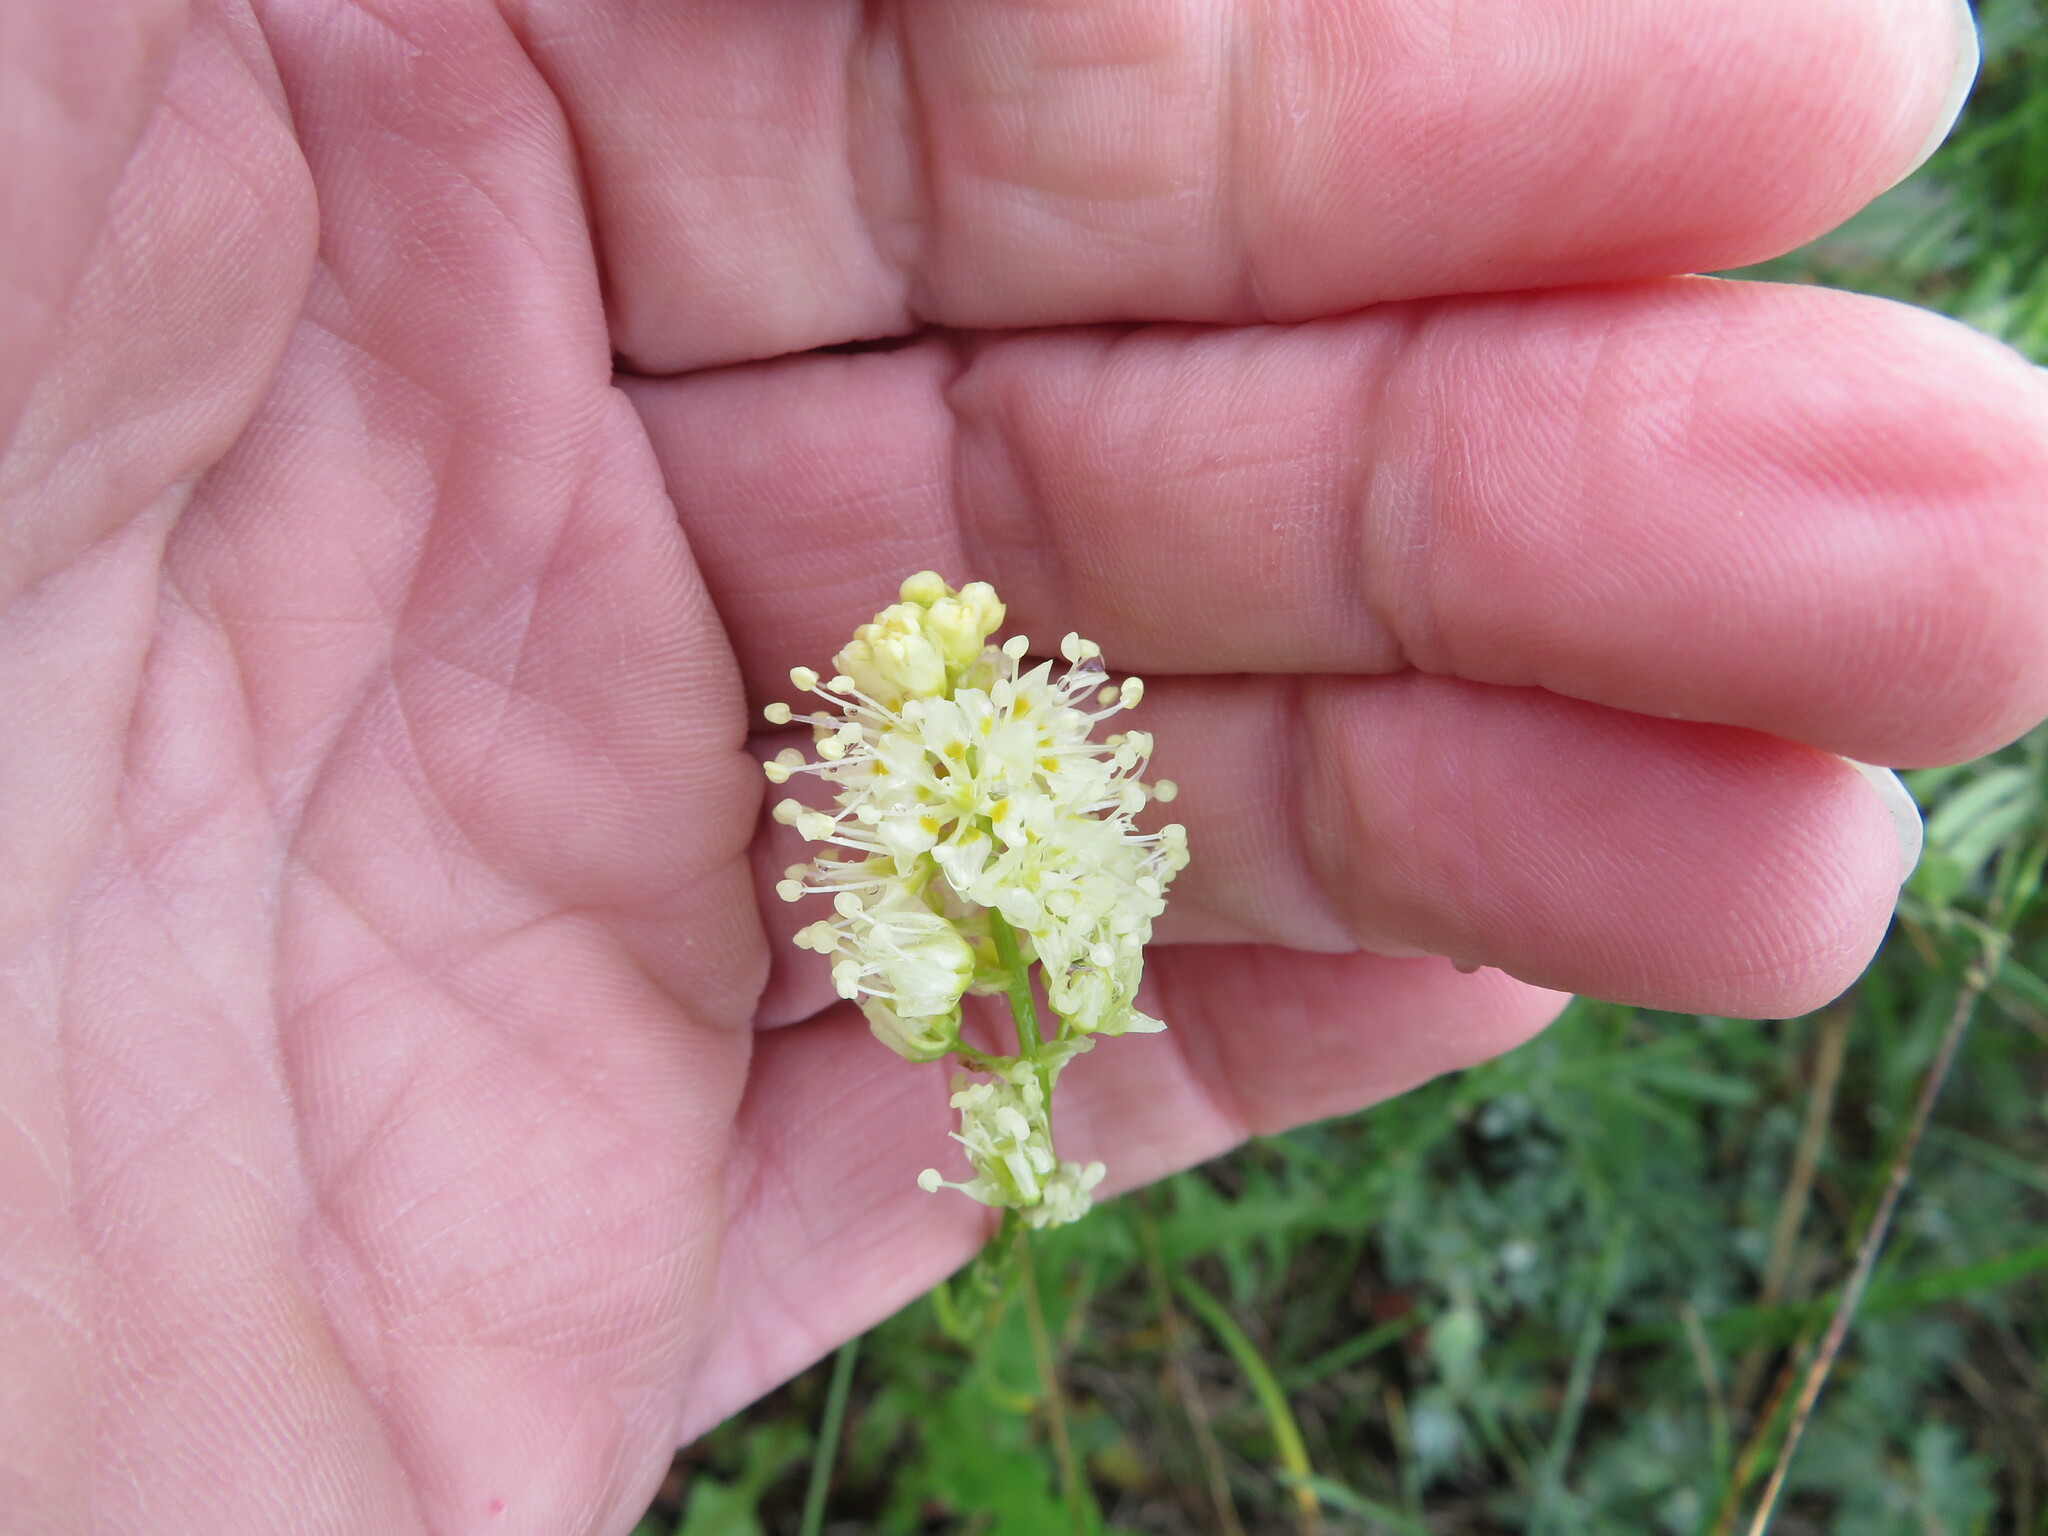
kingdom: Plantae
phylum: Tracheophyta
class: Liliopsida
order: Liliales
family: Melanthiaceae
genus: Toxicoscordion
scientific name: Toxicoscordion venenosum
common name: Meadow death camas
